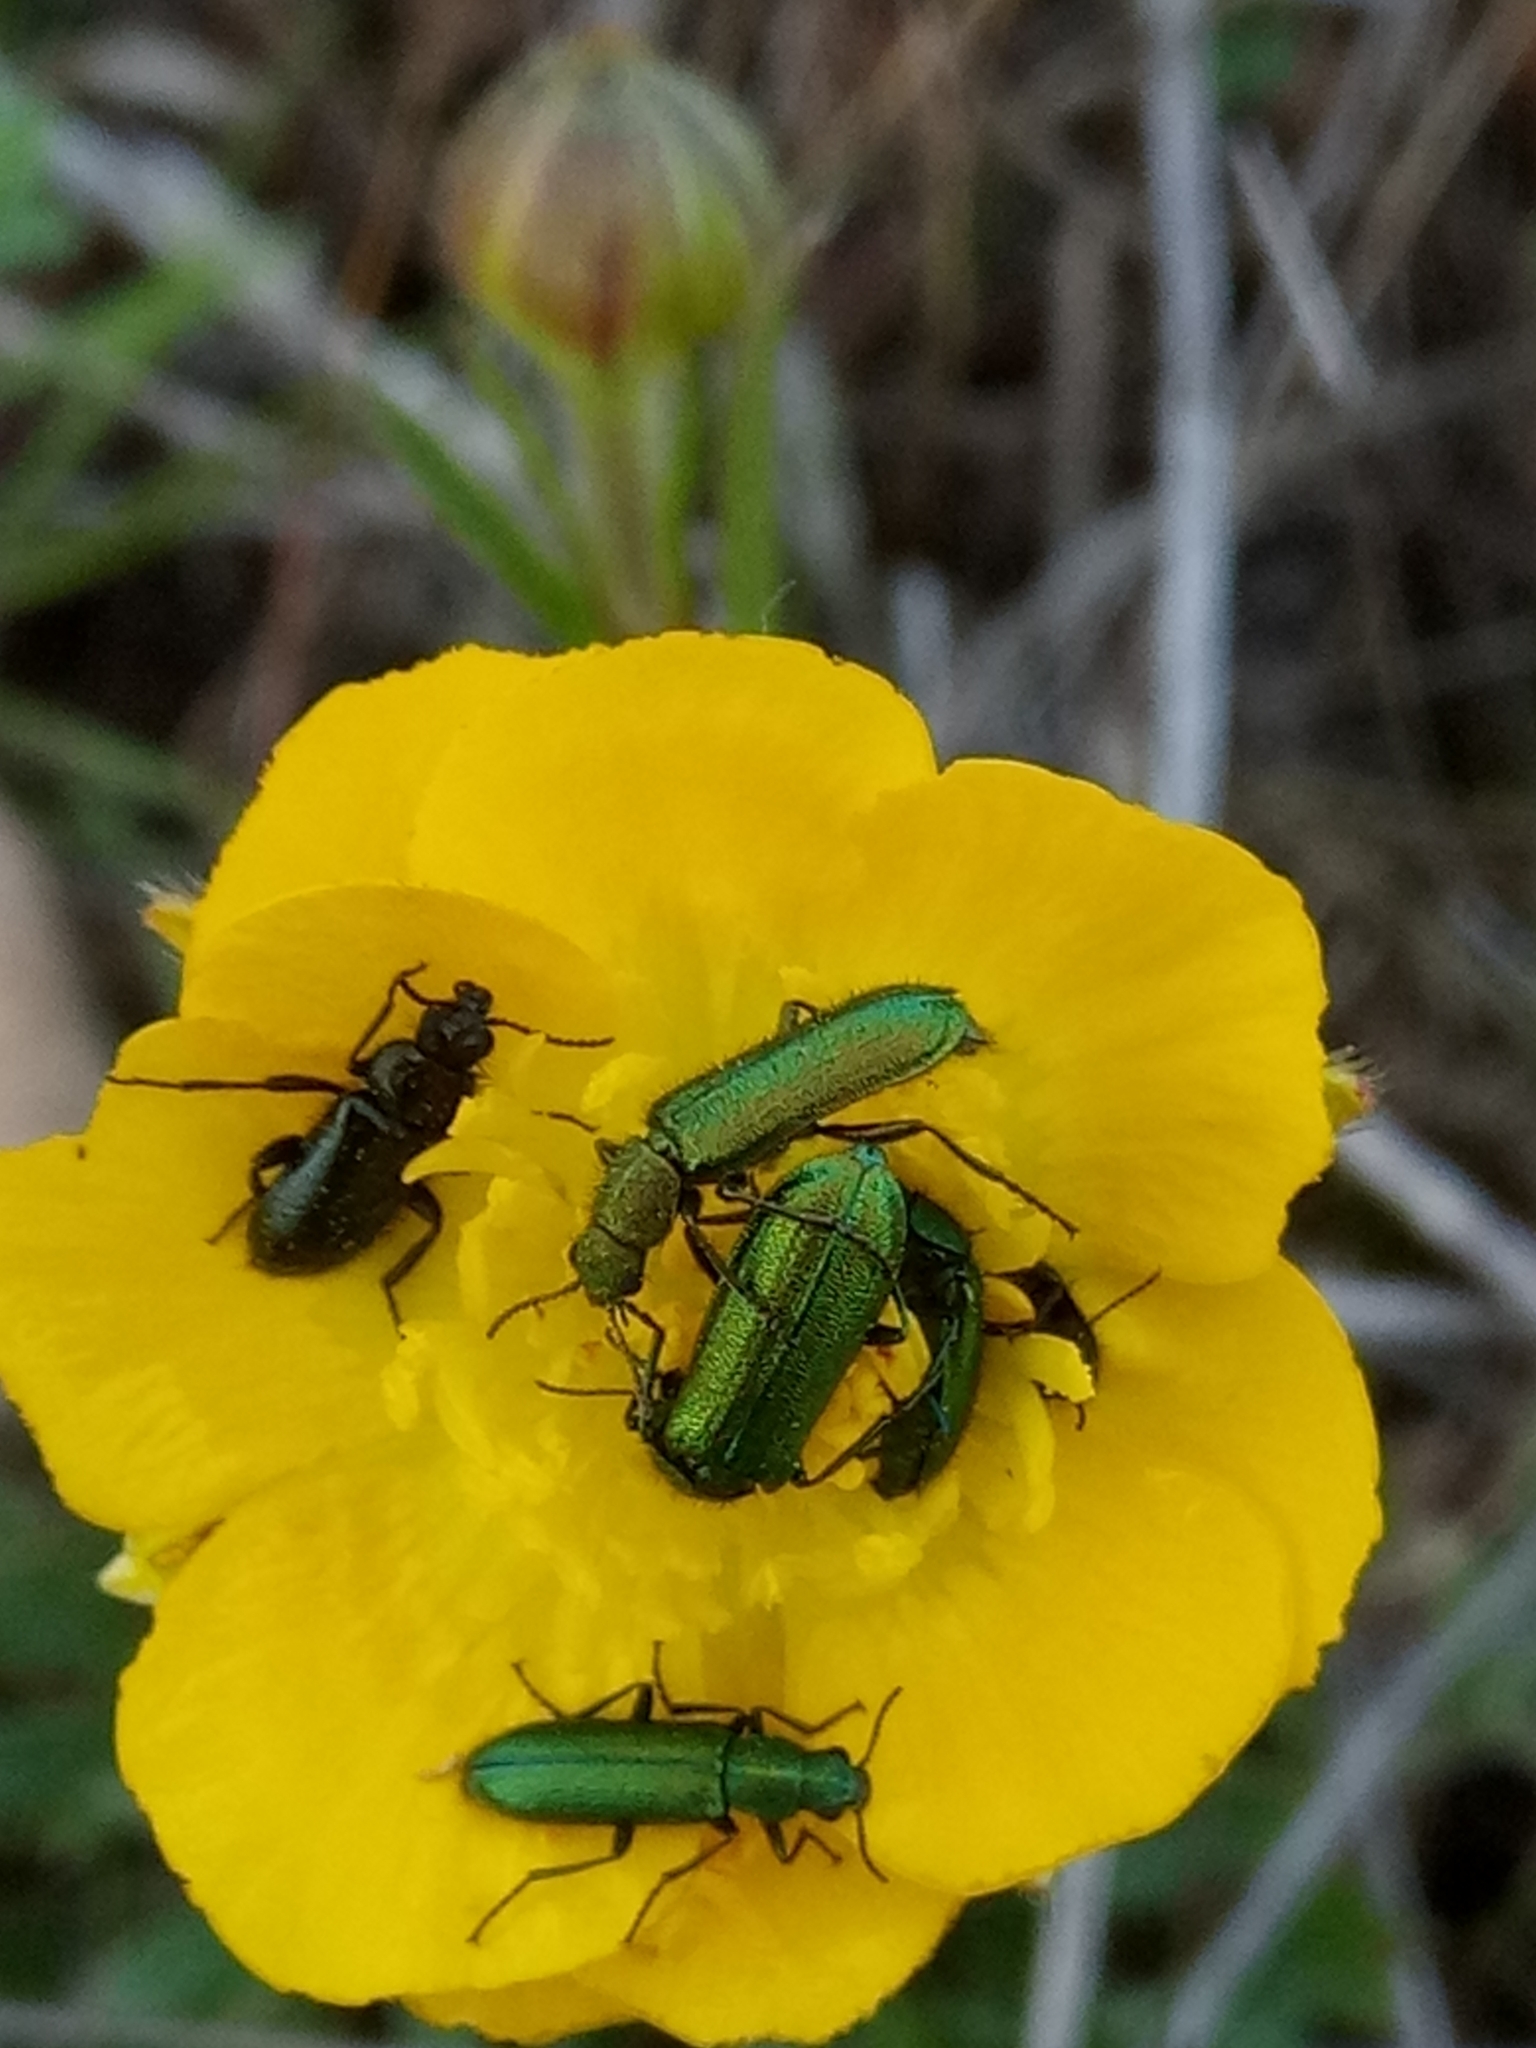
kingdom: Animalia
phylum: Arthropoda
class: Insecta
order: Coleoptera
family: Dasytidae
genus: Psilothrix
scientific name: Psilothrix viridicoerulea
